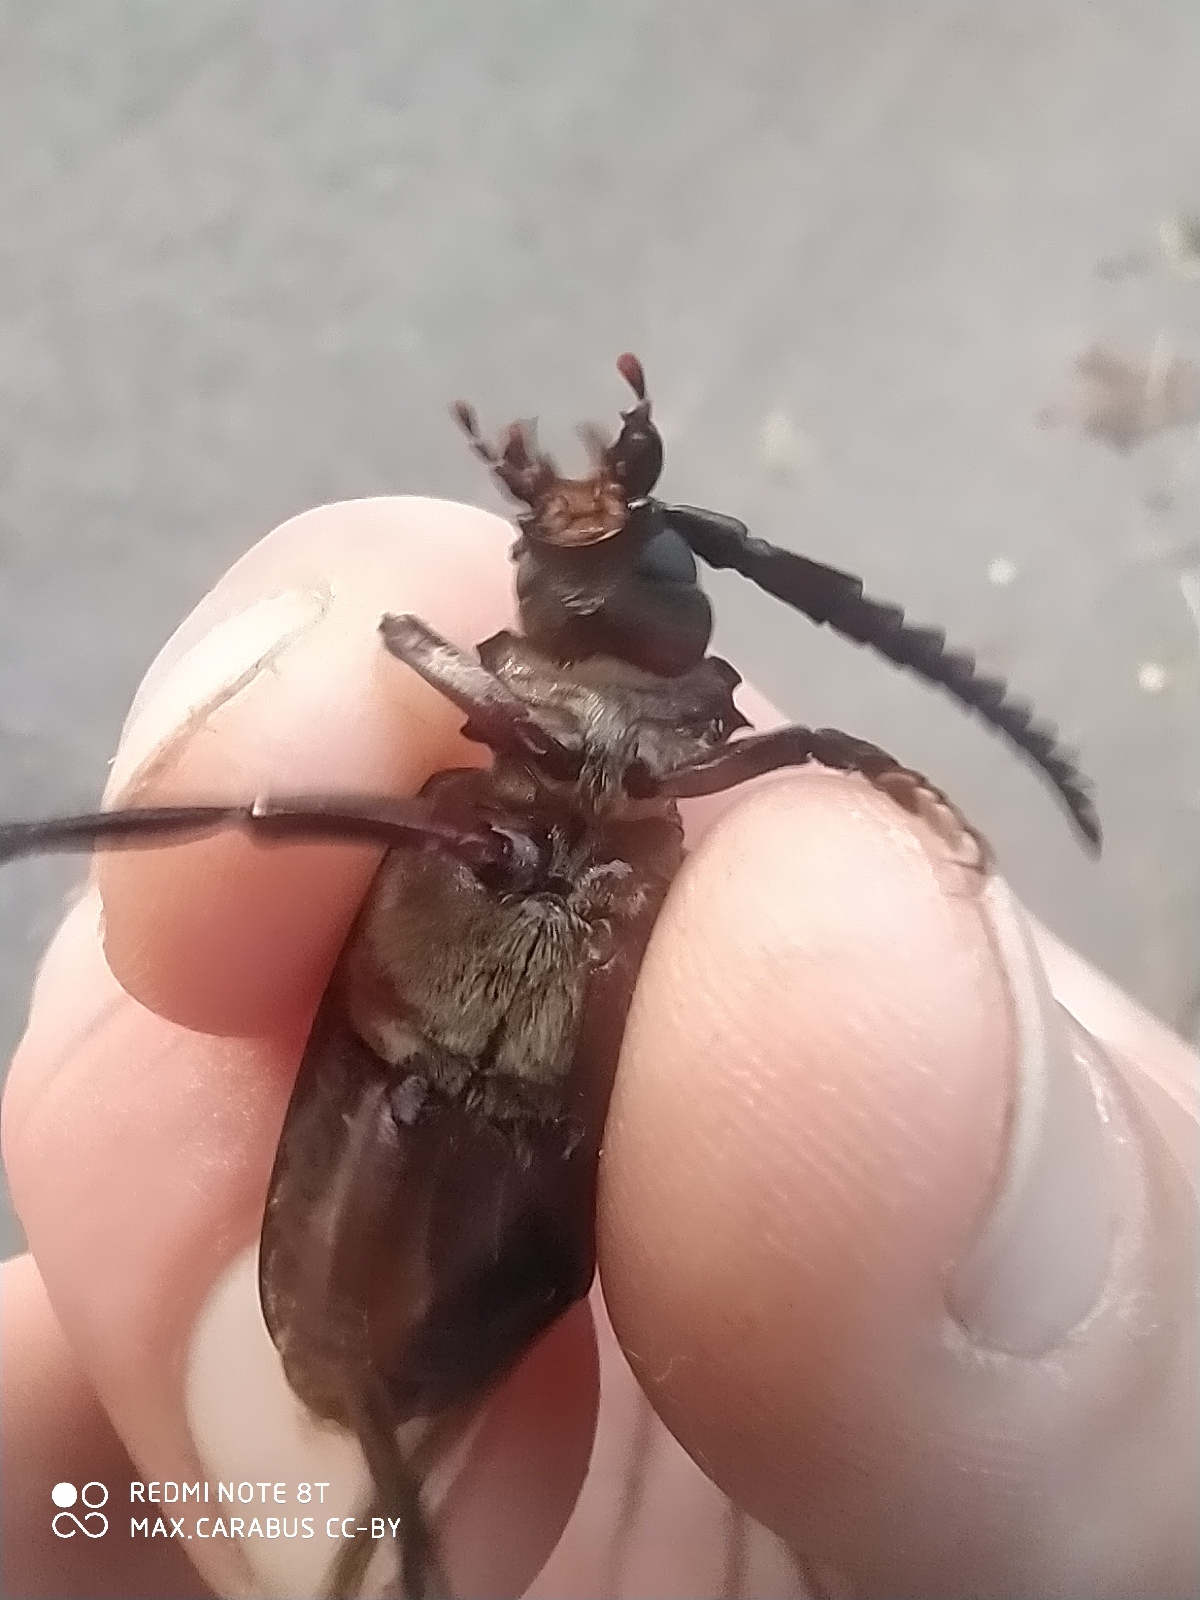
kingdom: Animalia
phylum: Arthropoda
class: Insecta
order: Coleoptera
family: Cerambycidae
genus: Prionus
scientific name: Prionus coriarius
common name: Tanner beetle
